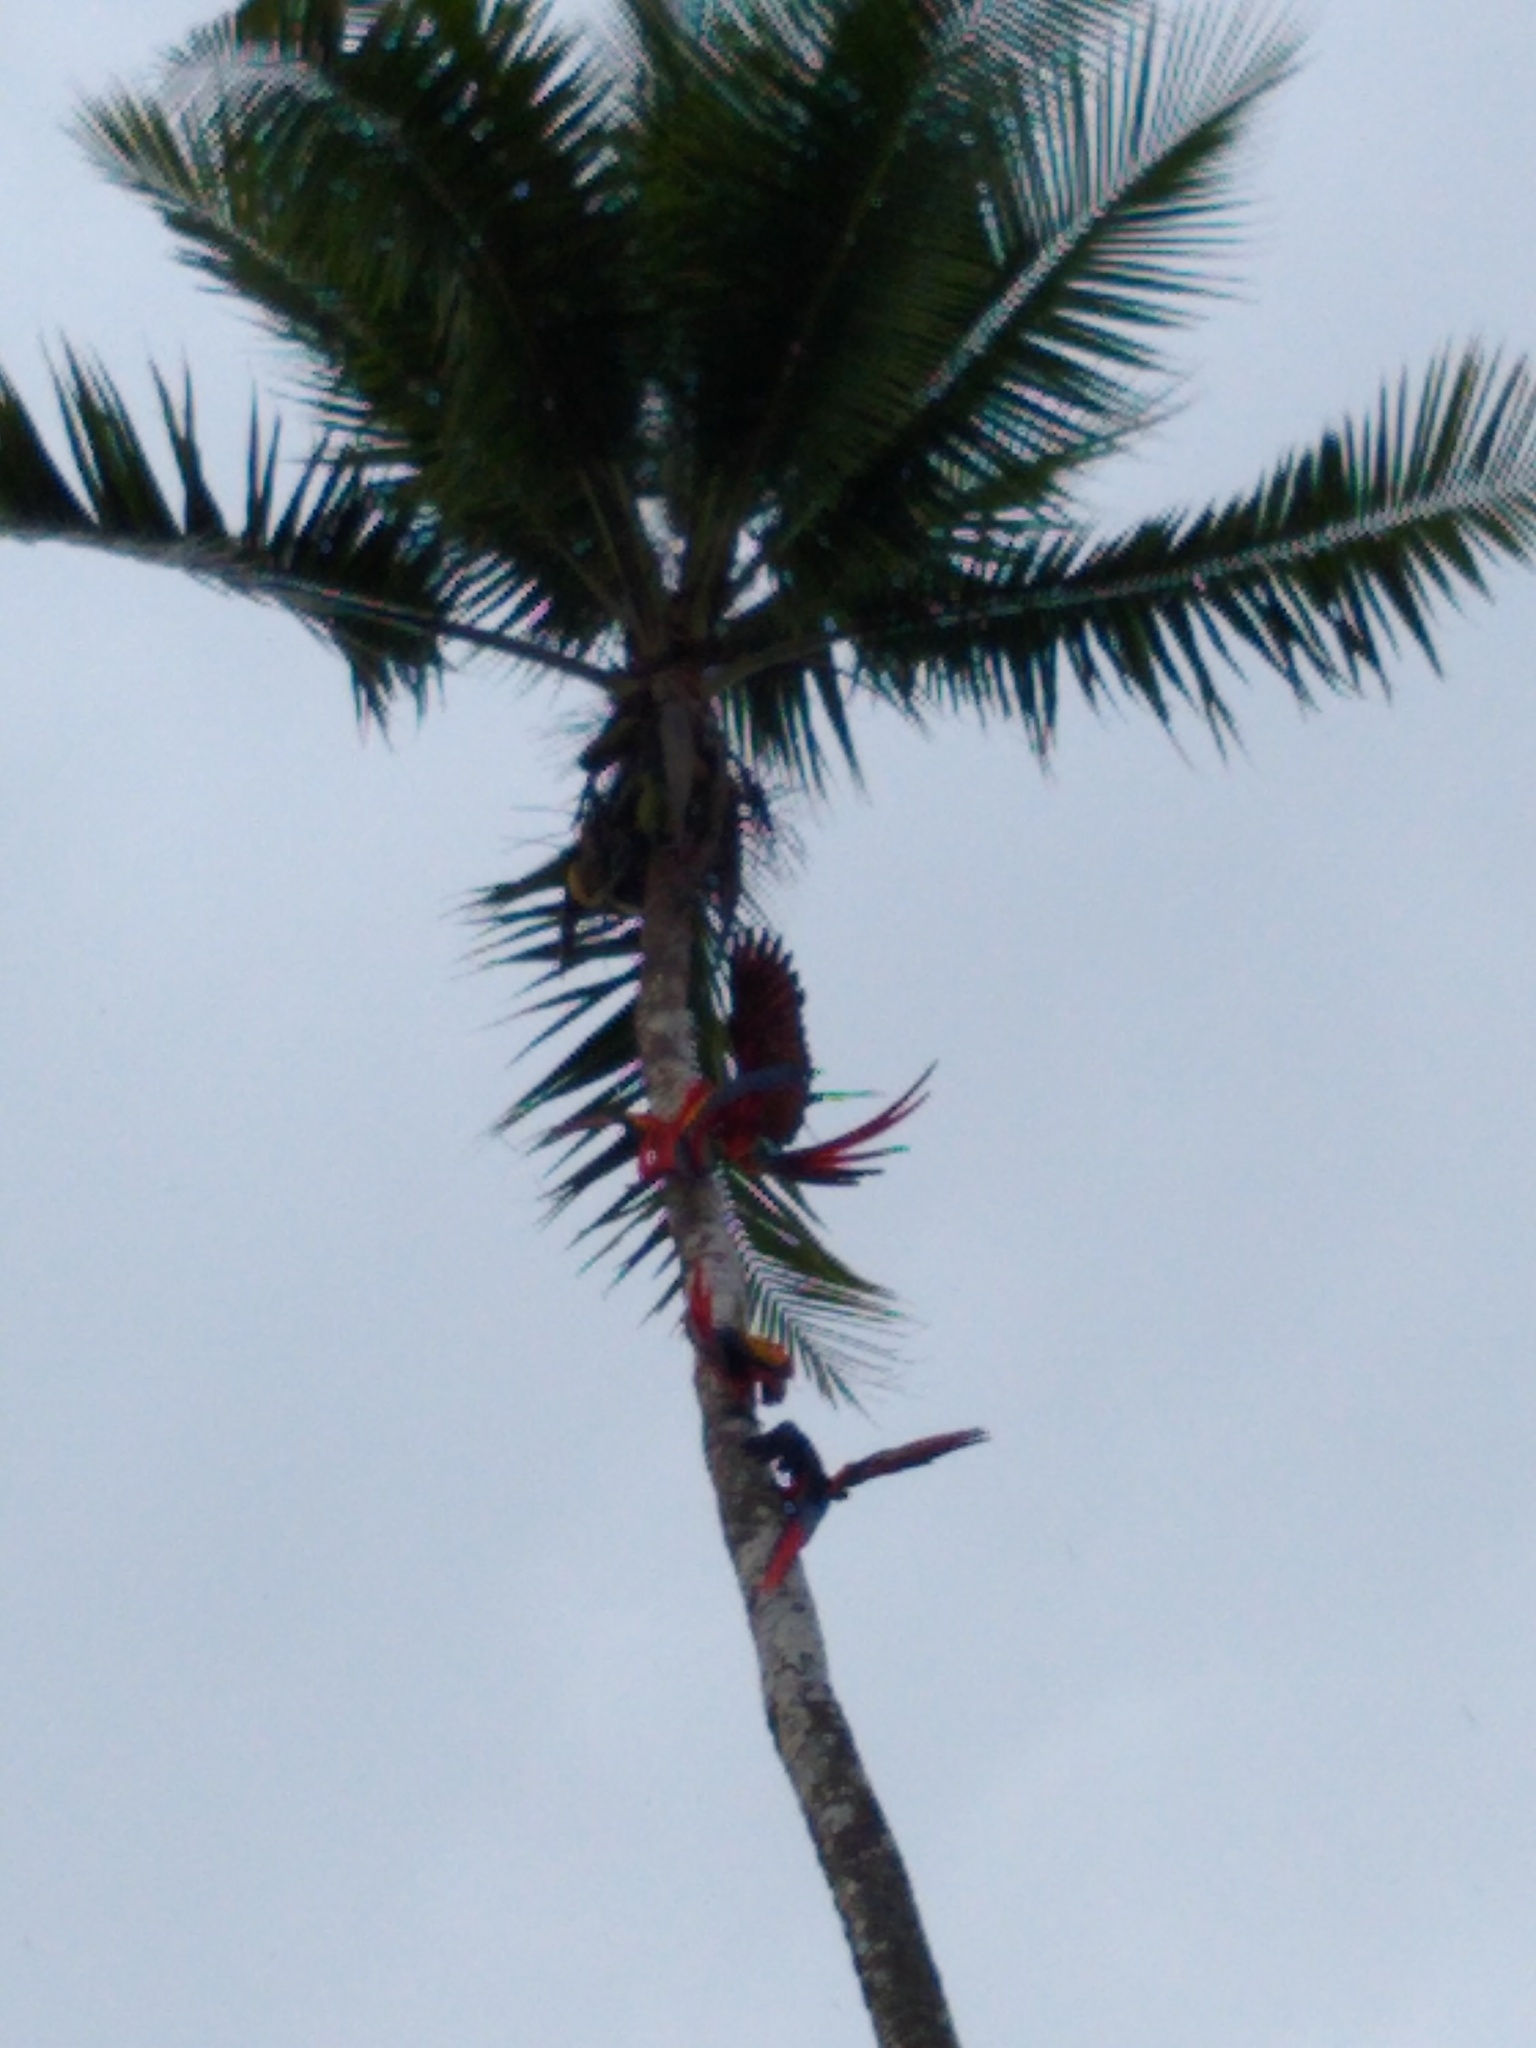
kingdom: Animalia
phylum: Chordata
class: Aves
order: Psittaciformes
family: Psittacidae
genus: Ara
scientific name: Ara macao
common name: Scarlet macaw
